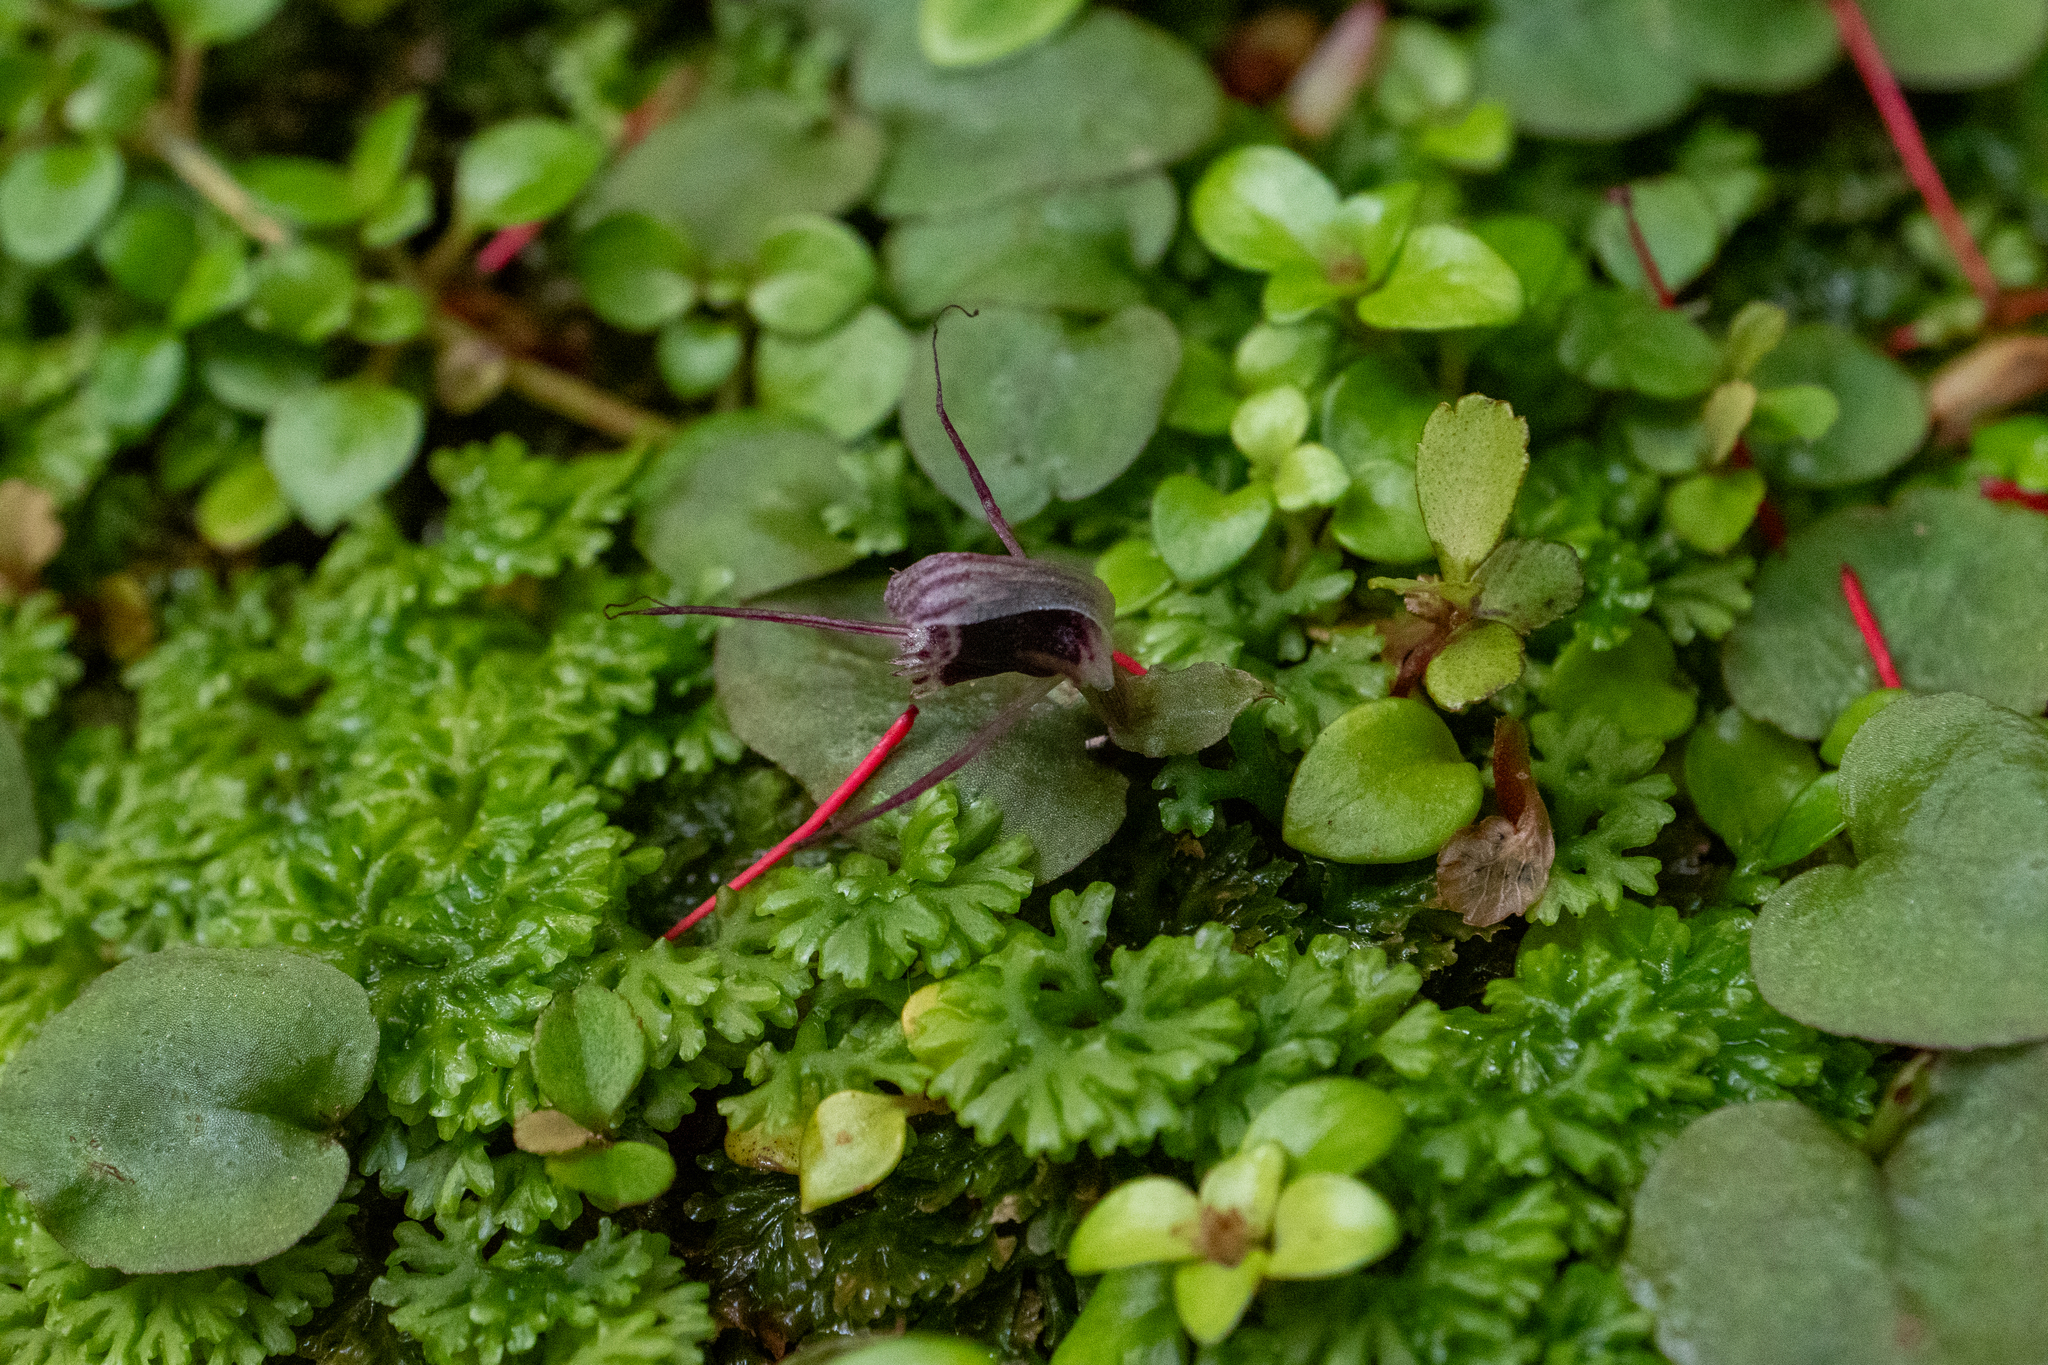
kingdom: Plantae
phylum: Tracheophyta
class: Liliopsida
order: Asparagales
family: Orchidaceae
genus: Corybas
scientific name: Corybas oblongus
